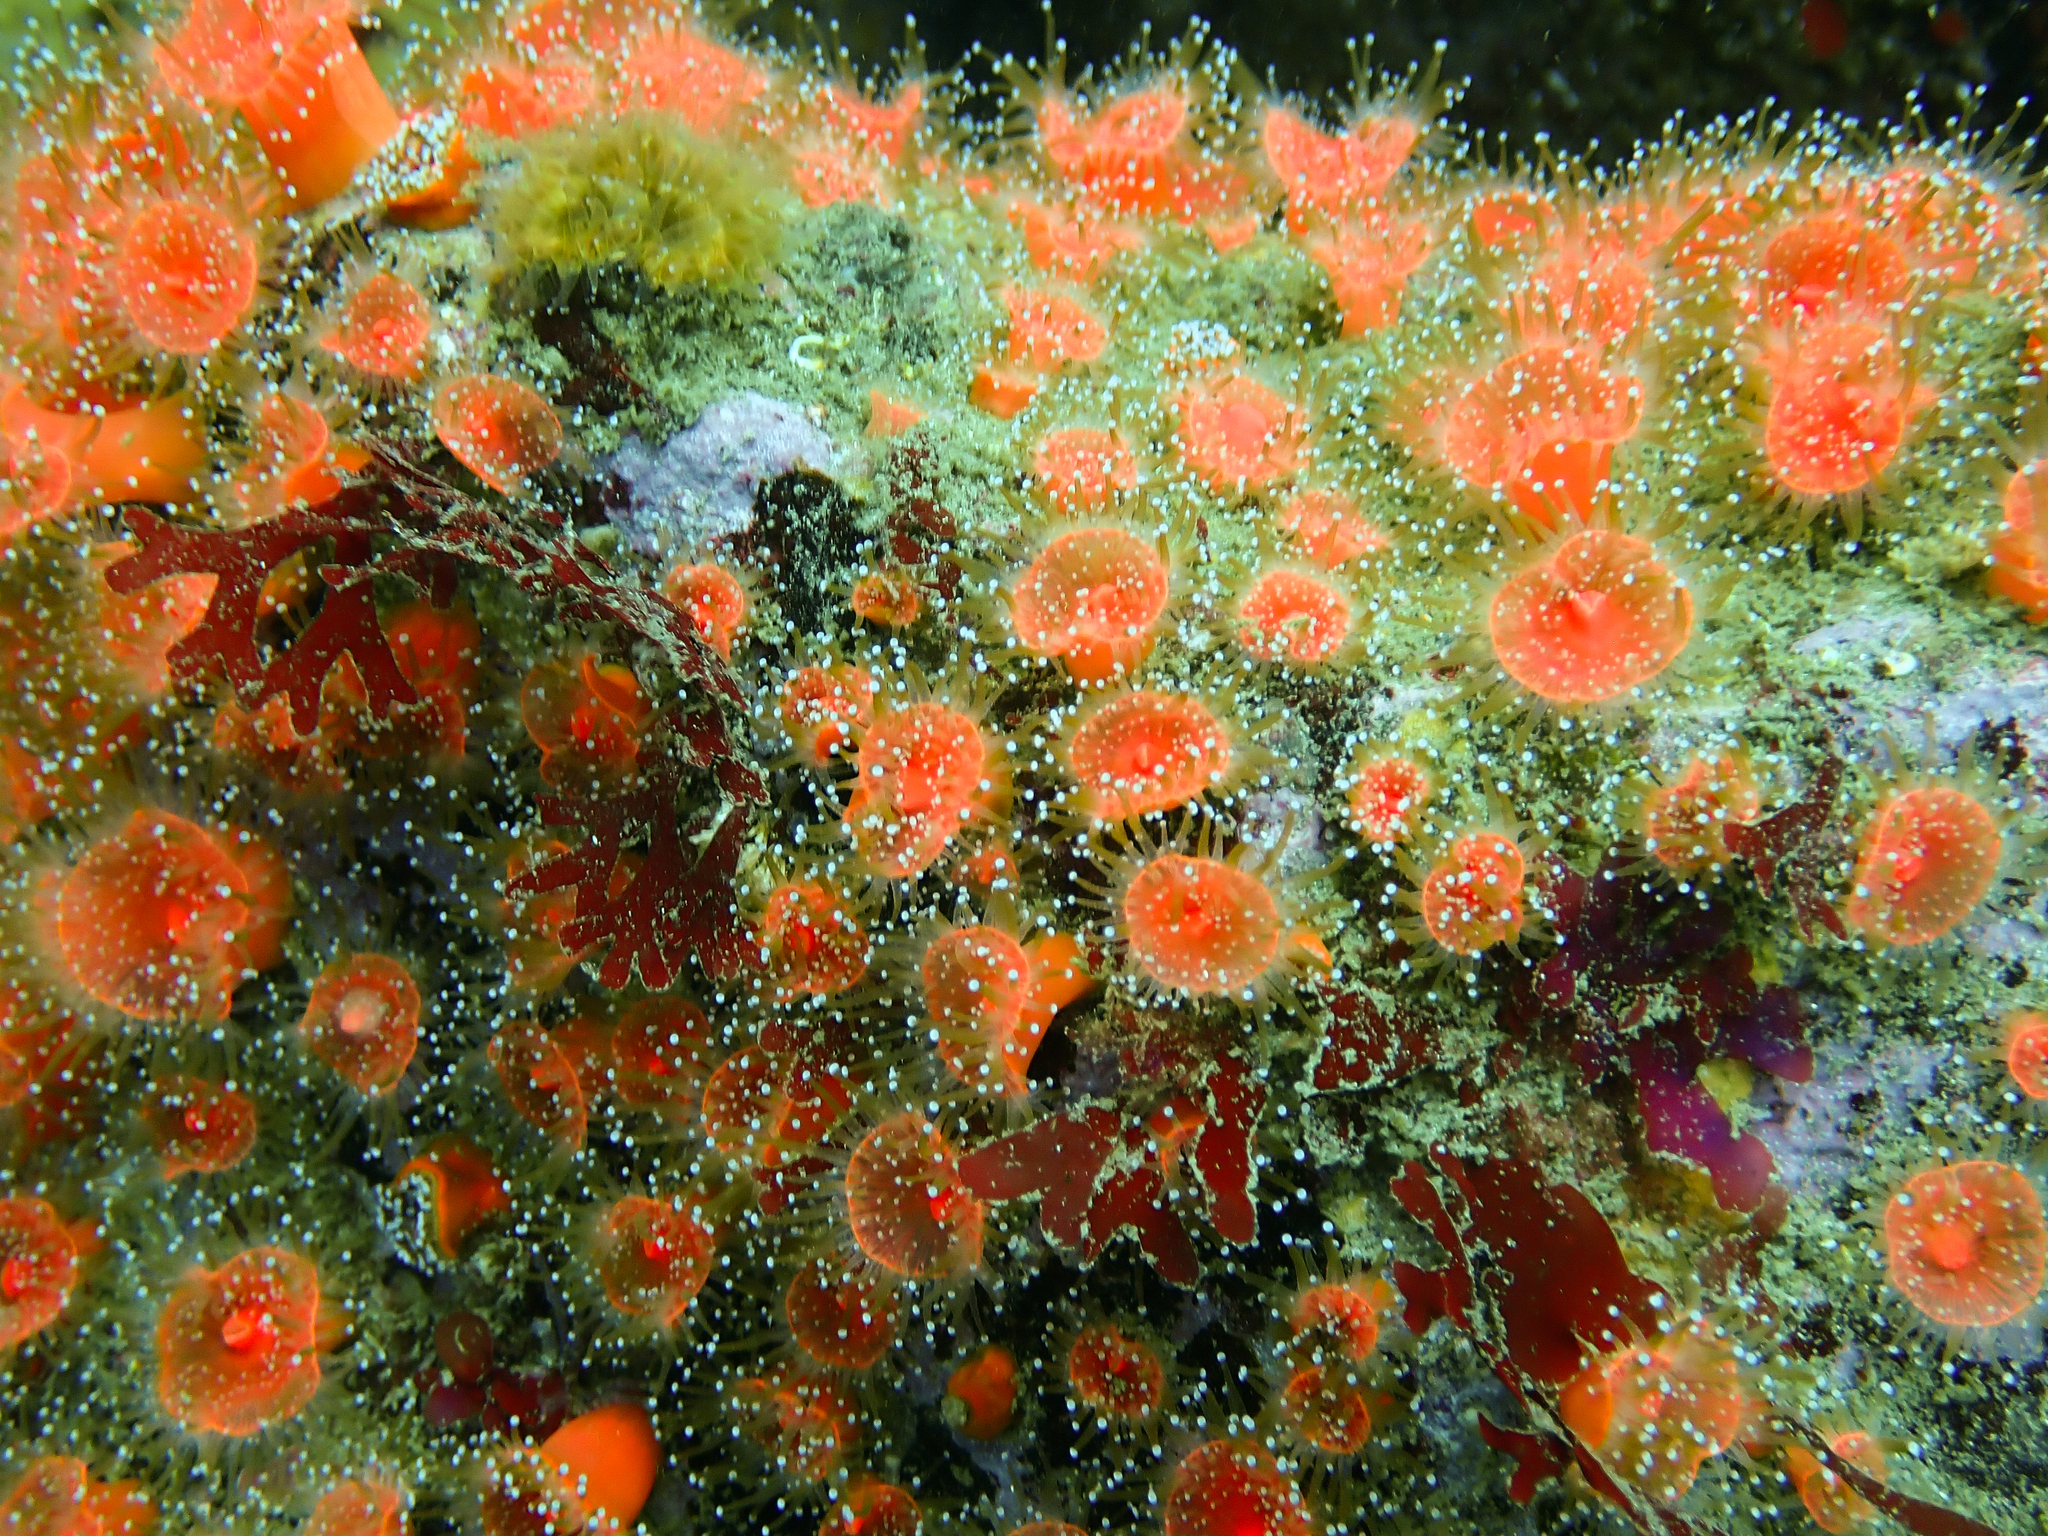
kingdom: Animalia
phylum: Cnidaria
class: Anthozoa
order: Corallimorpharia
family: Corallimorphidae
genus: Corynactis
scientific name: Corynactis californica
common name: Strawberry corallimorpharian
